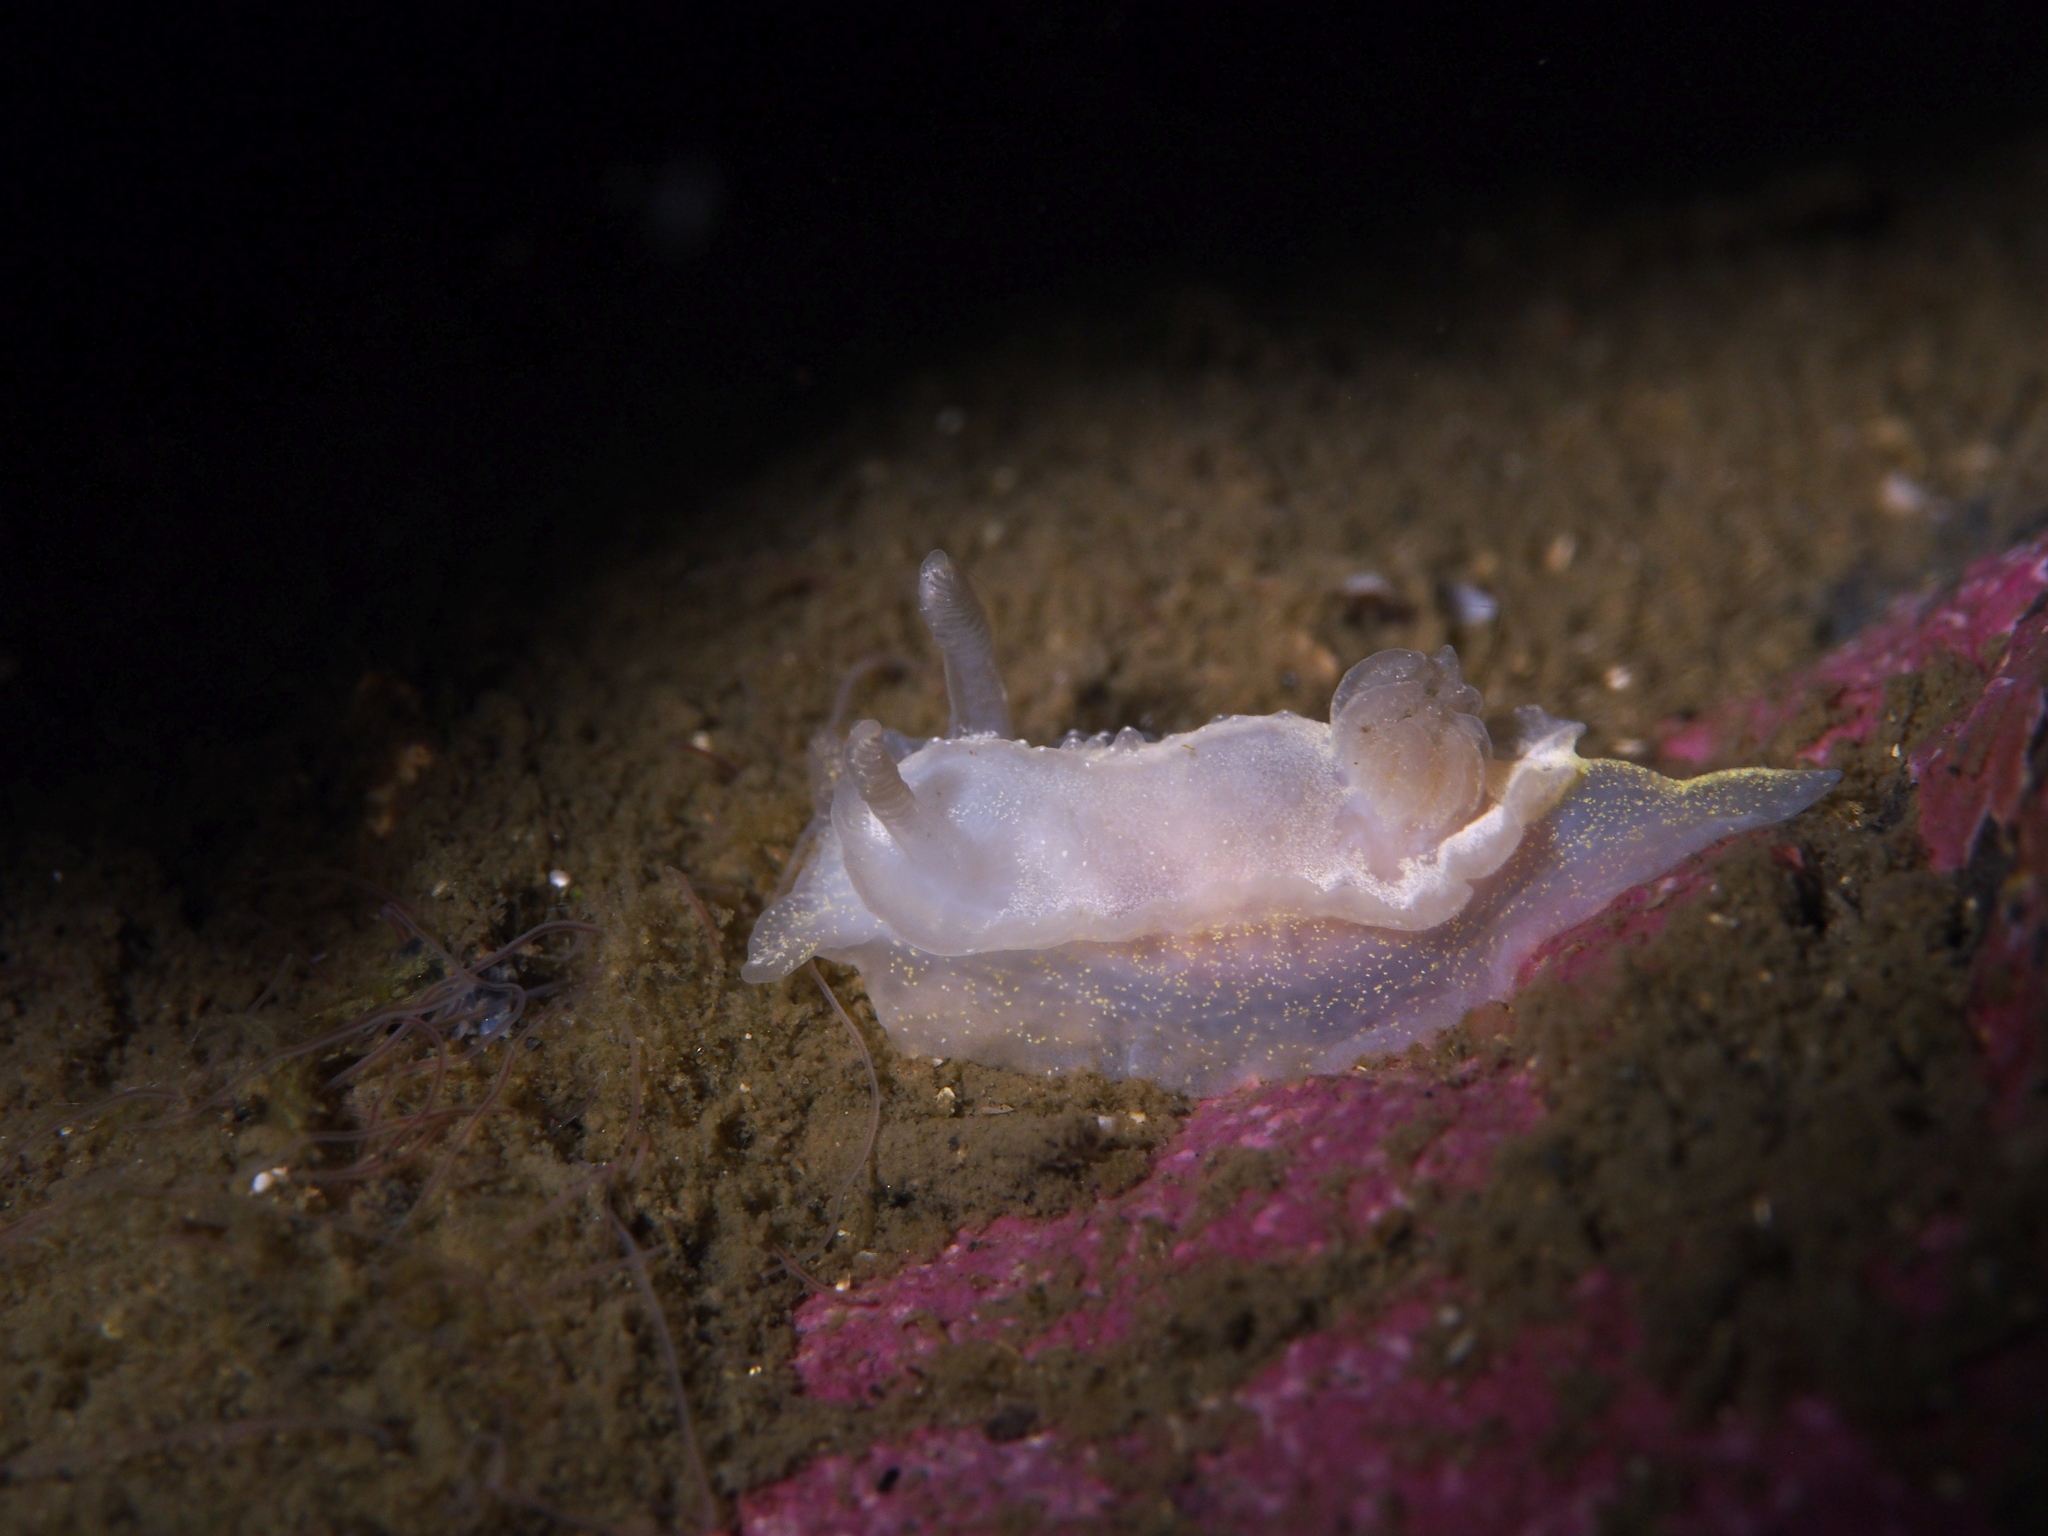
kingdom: Animalia
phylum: Mollusca
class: Gastropoda
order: Nudibranchia
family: Goniodorididae
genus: Okenia
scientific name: Okenia
